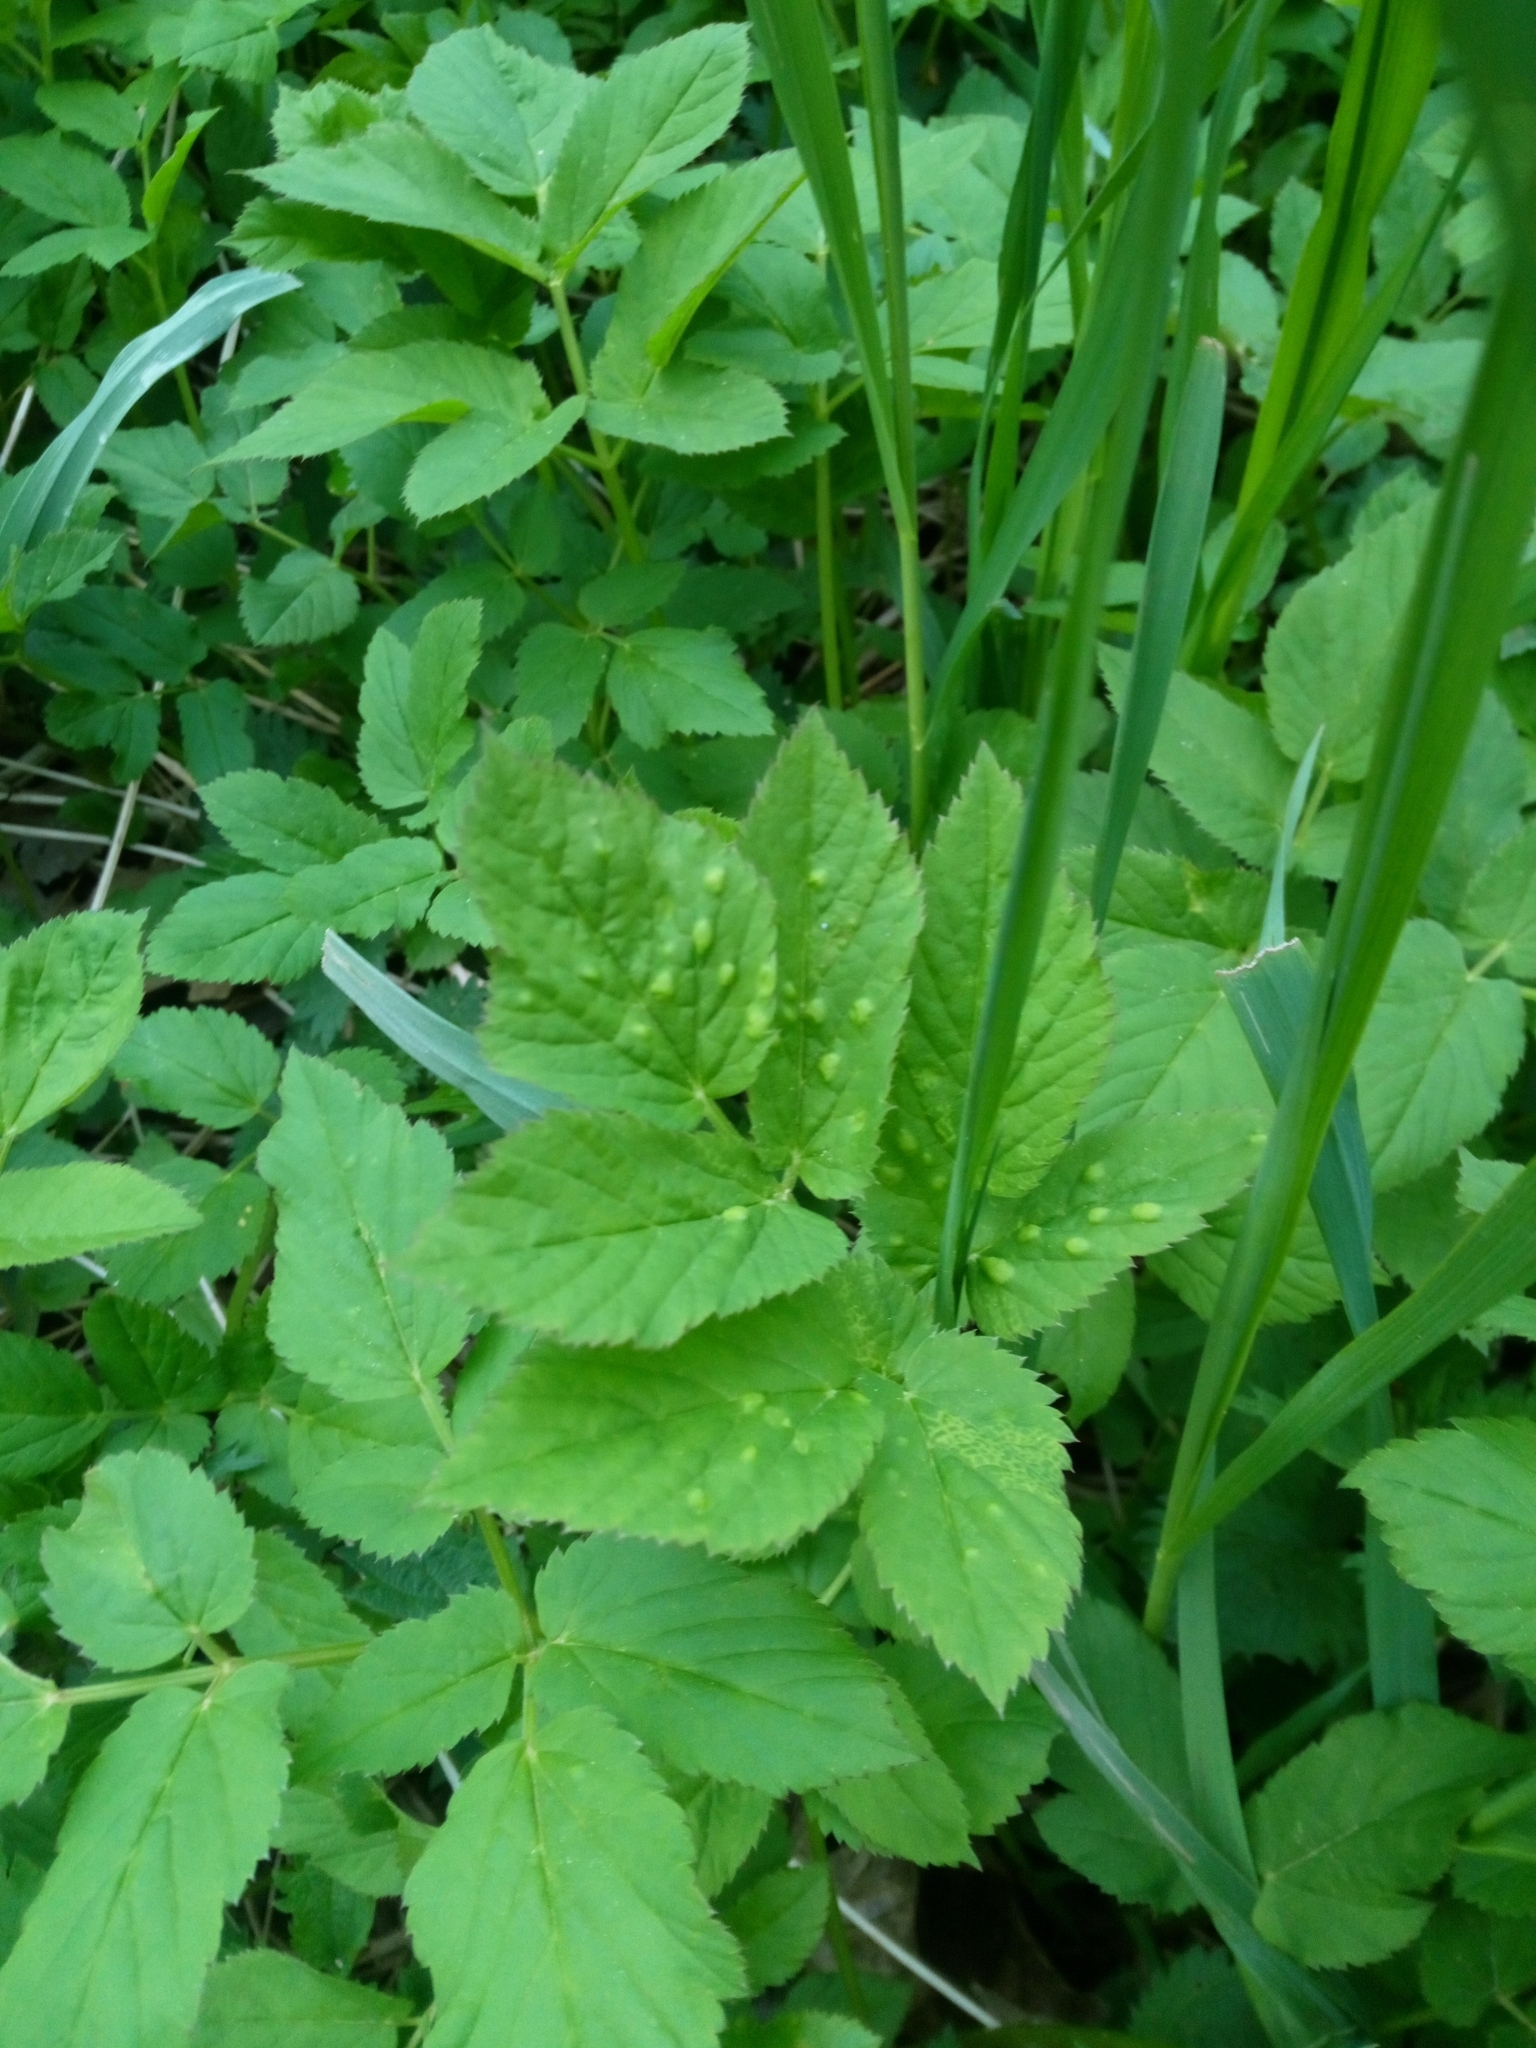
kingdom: Plantae
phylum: Tracheophyta
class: Magnoliopsida
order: Apiales
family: Apiaceae
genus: Aegopodium
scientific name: Aegopodium podagraria
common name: Ground-elder
